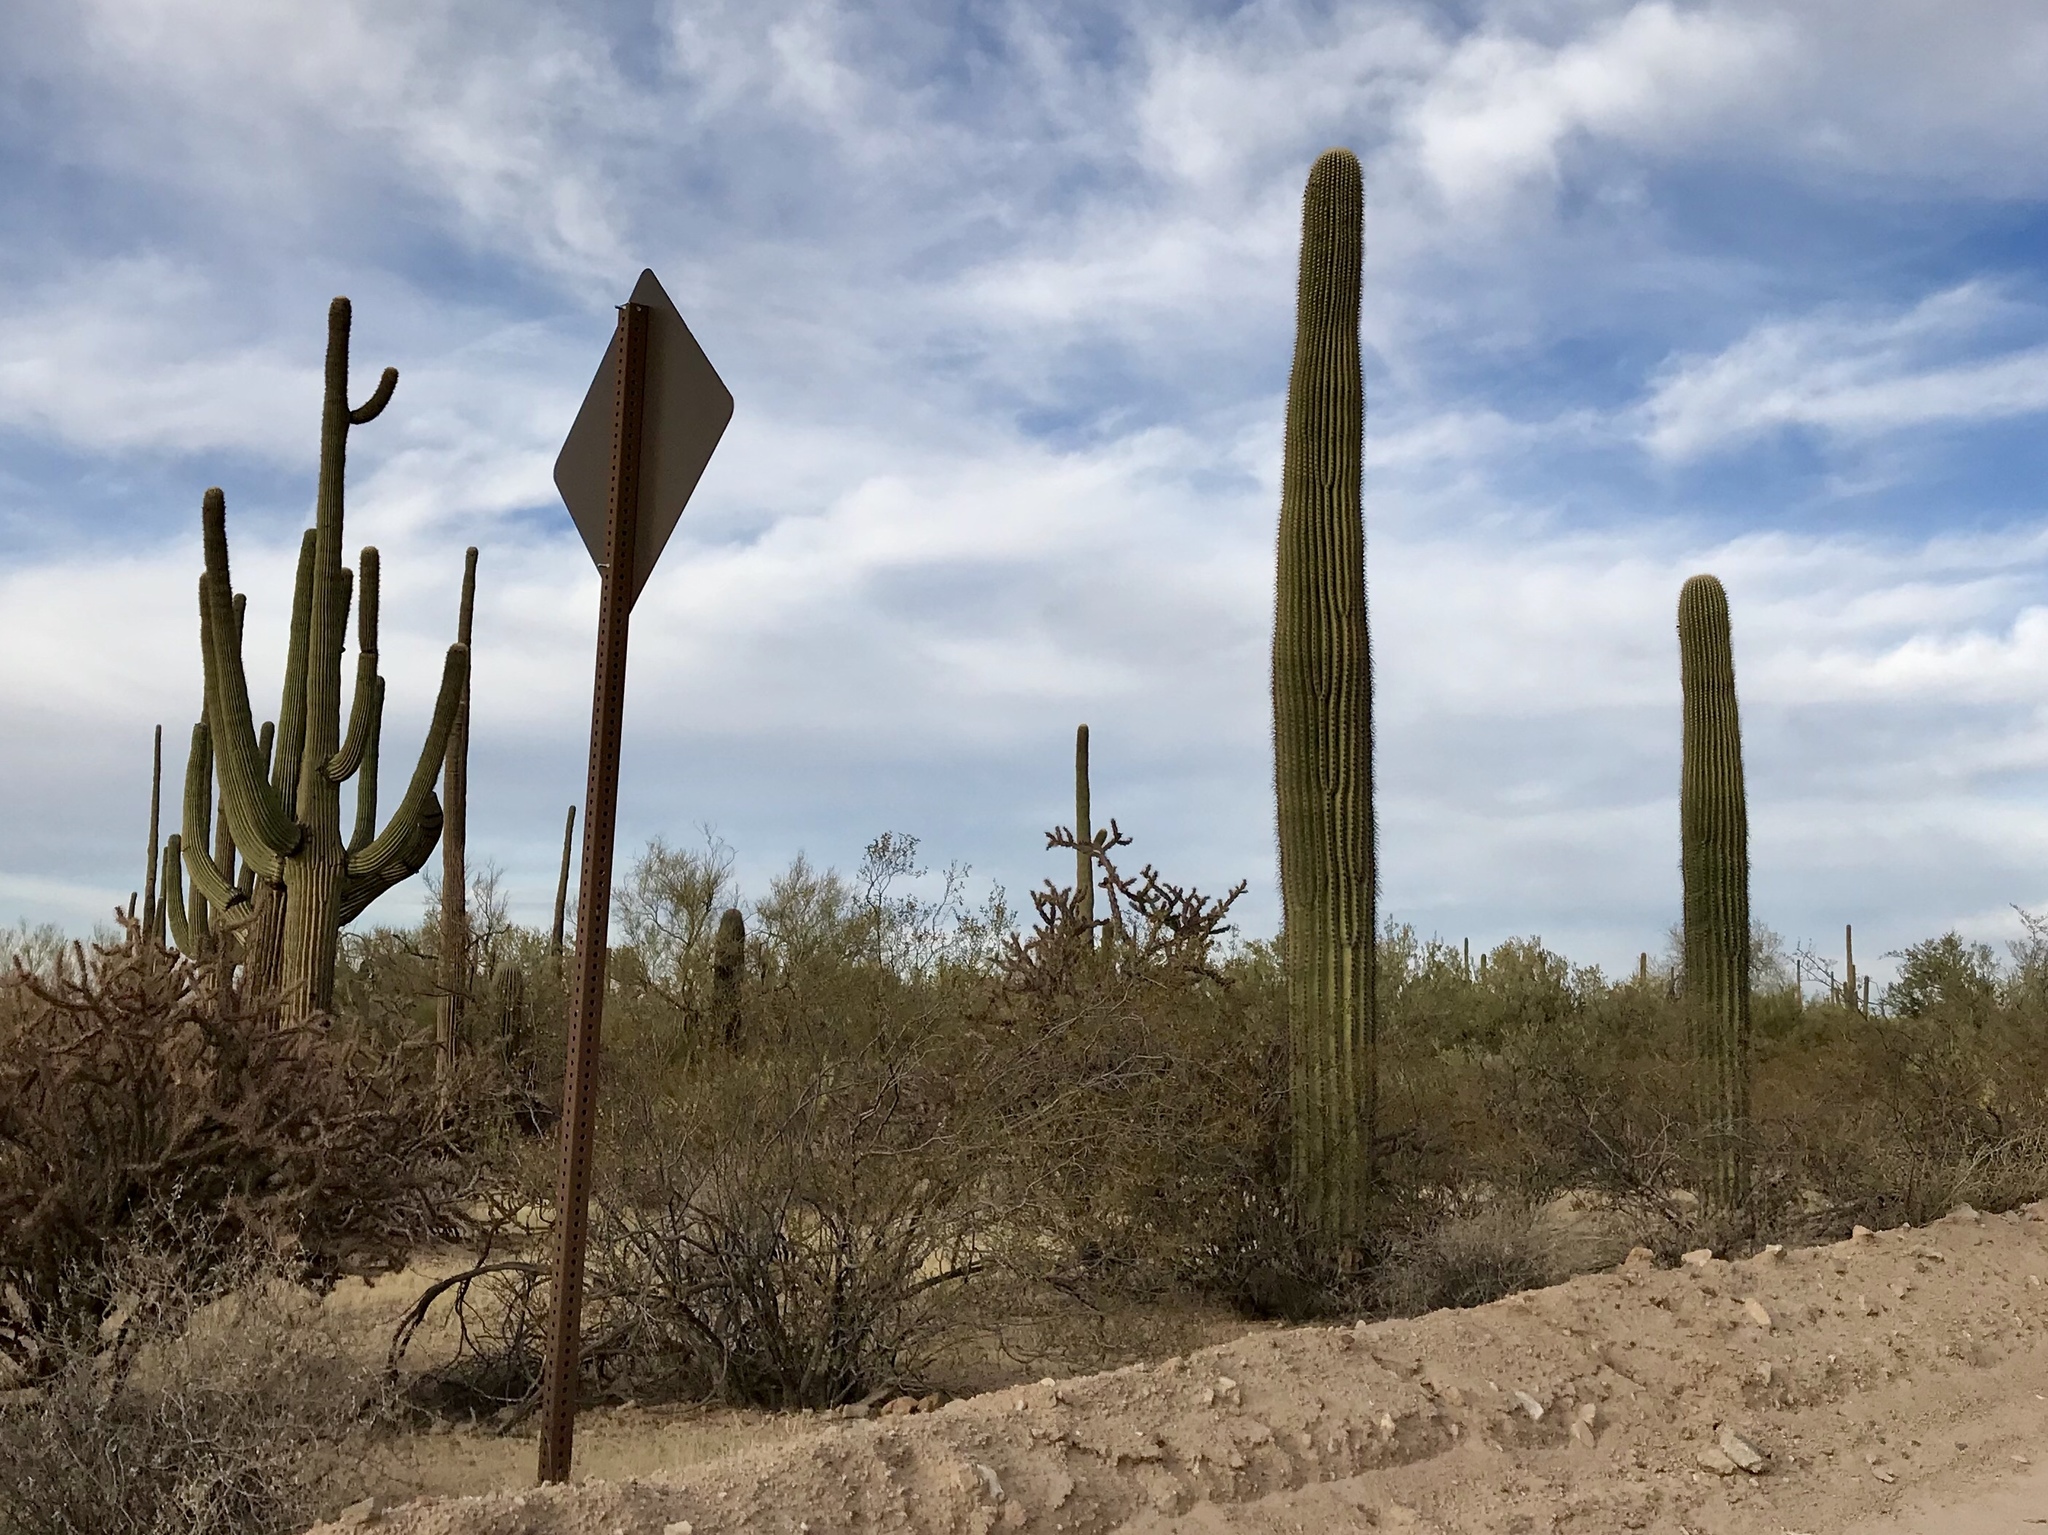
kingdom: Plantae
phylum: Tracheophyta
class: Magnoliopsida
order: Caryophyllales
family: Cactaceae
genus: Carnegiea
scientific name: Carnegiea gigantea
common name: Saguaro
